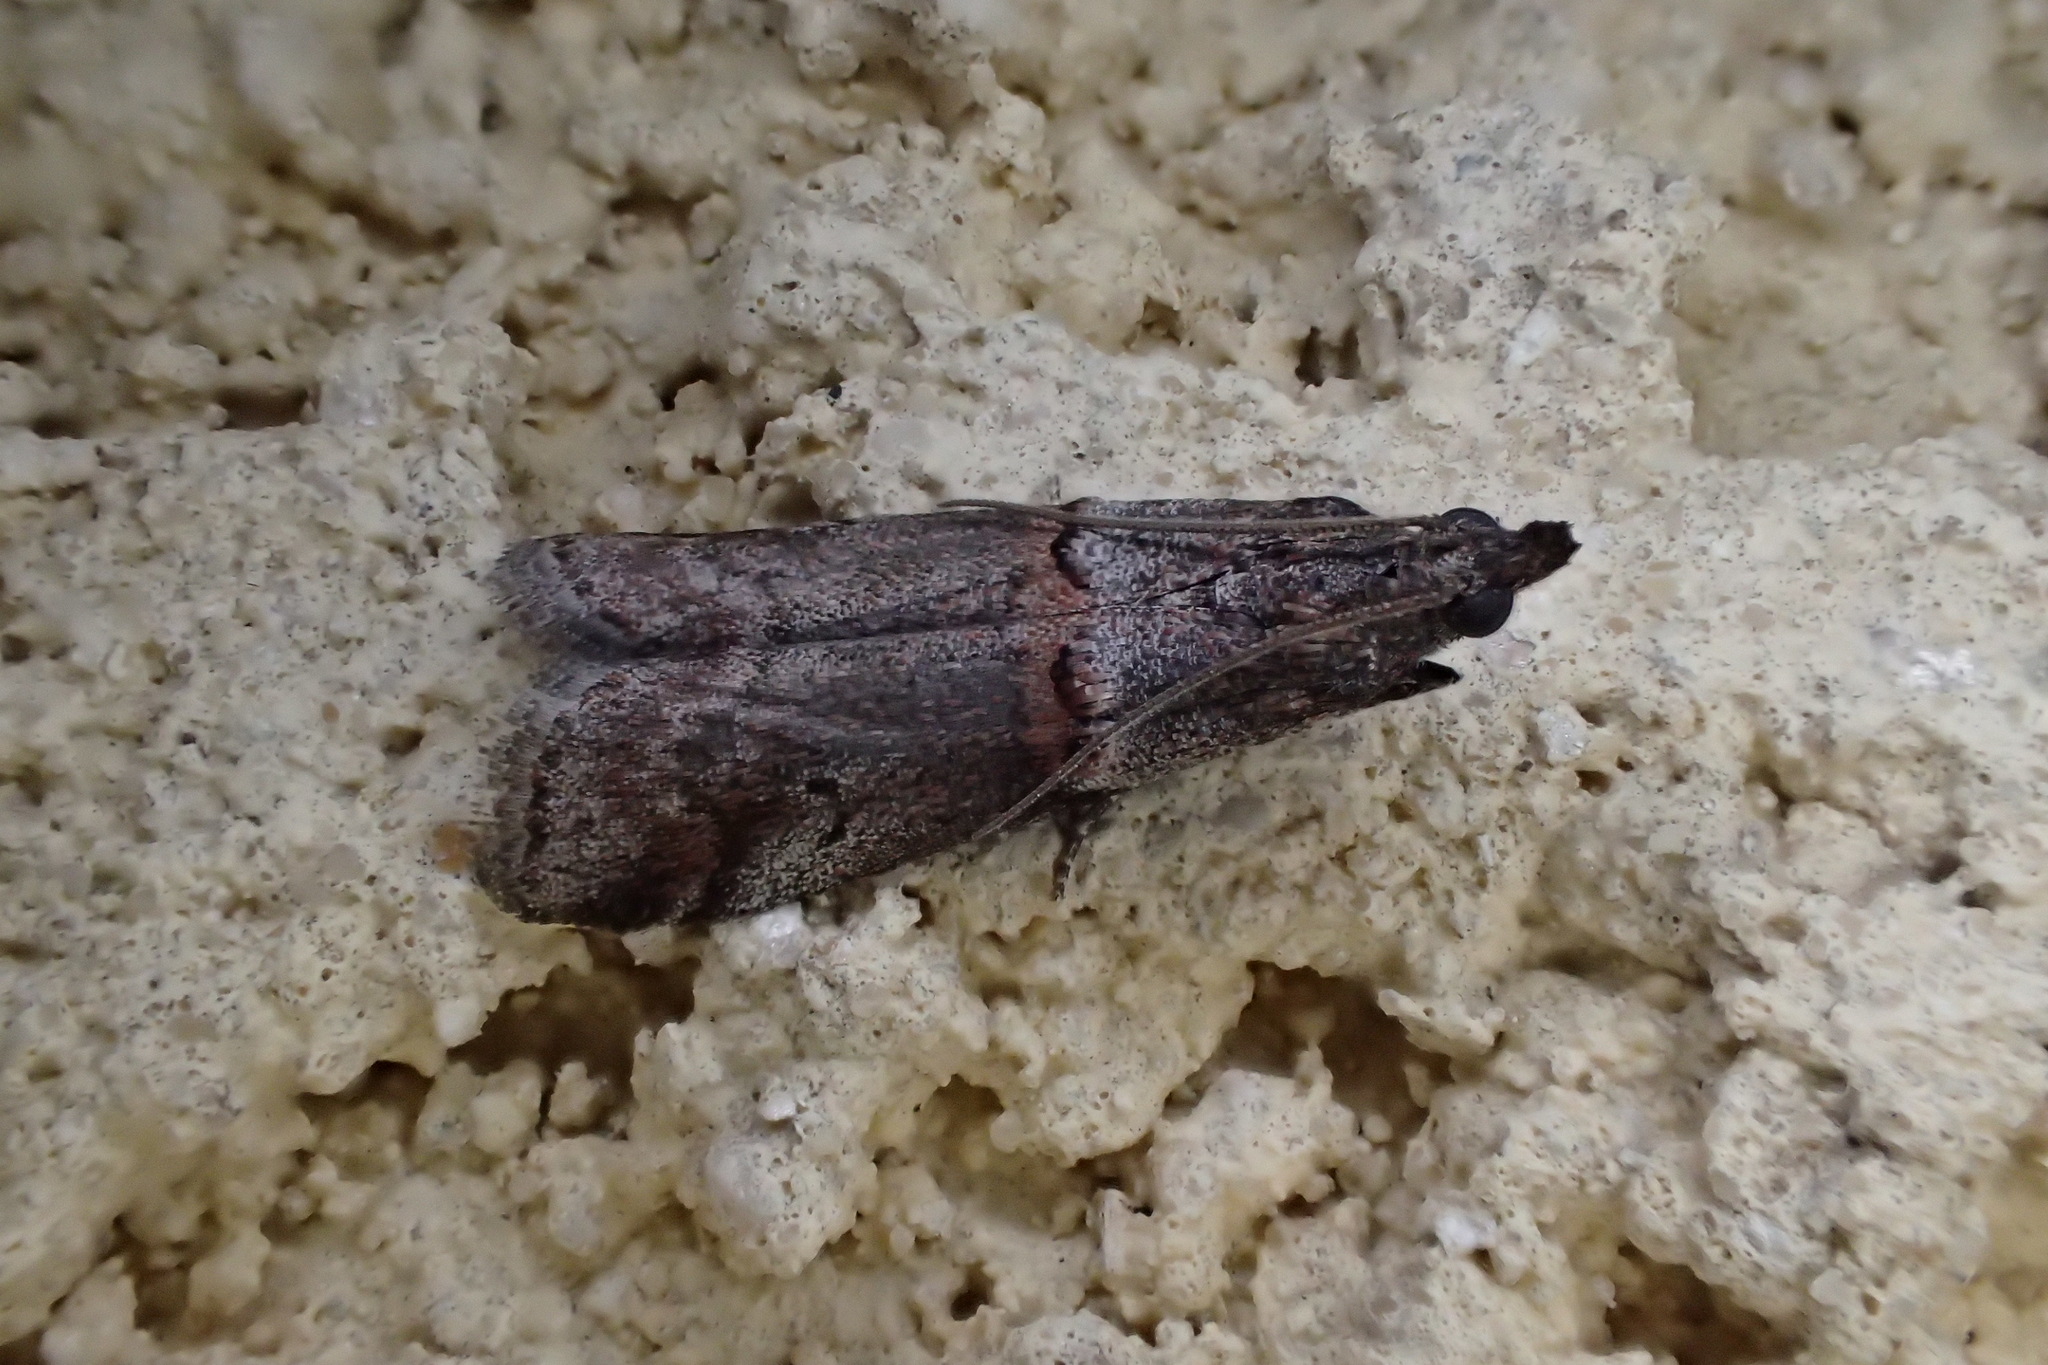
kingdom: Animalia
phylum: Arthropoda
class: Insecta
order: Lepidoptera
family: Pyralidae
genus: Acrobasis
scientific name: Acrobasis obliqua
